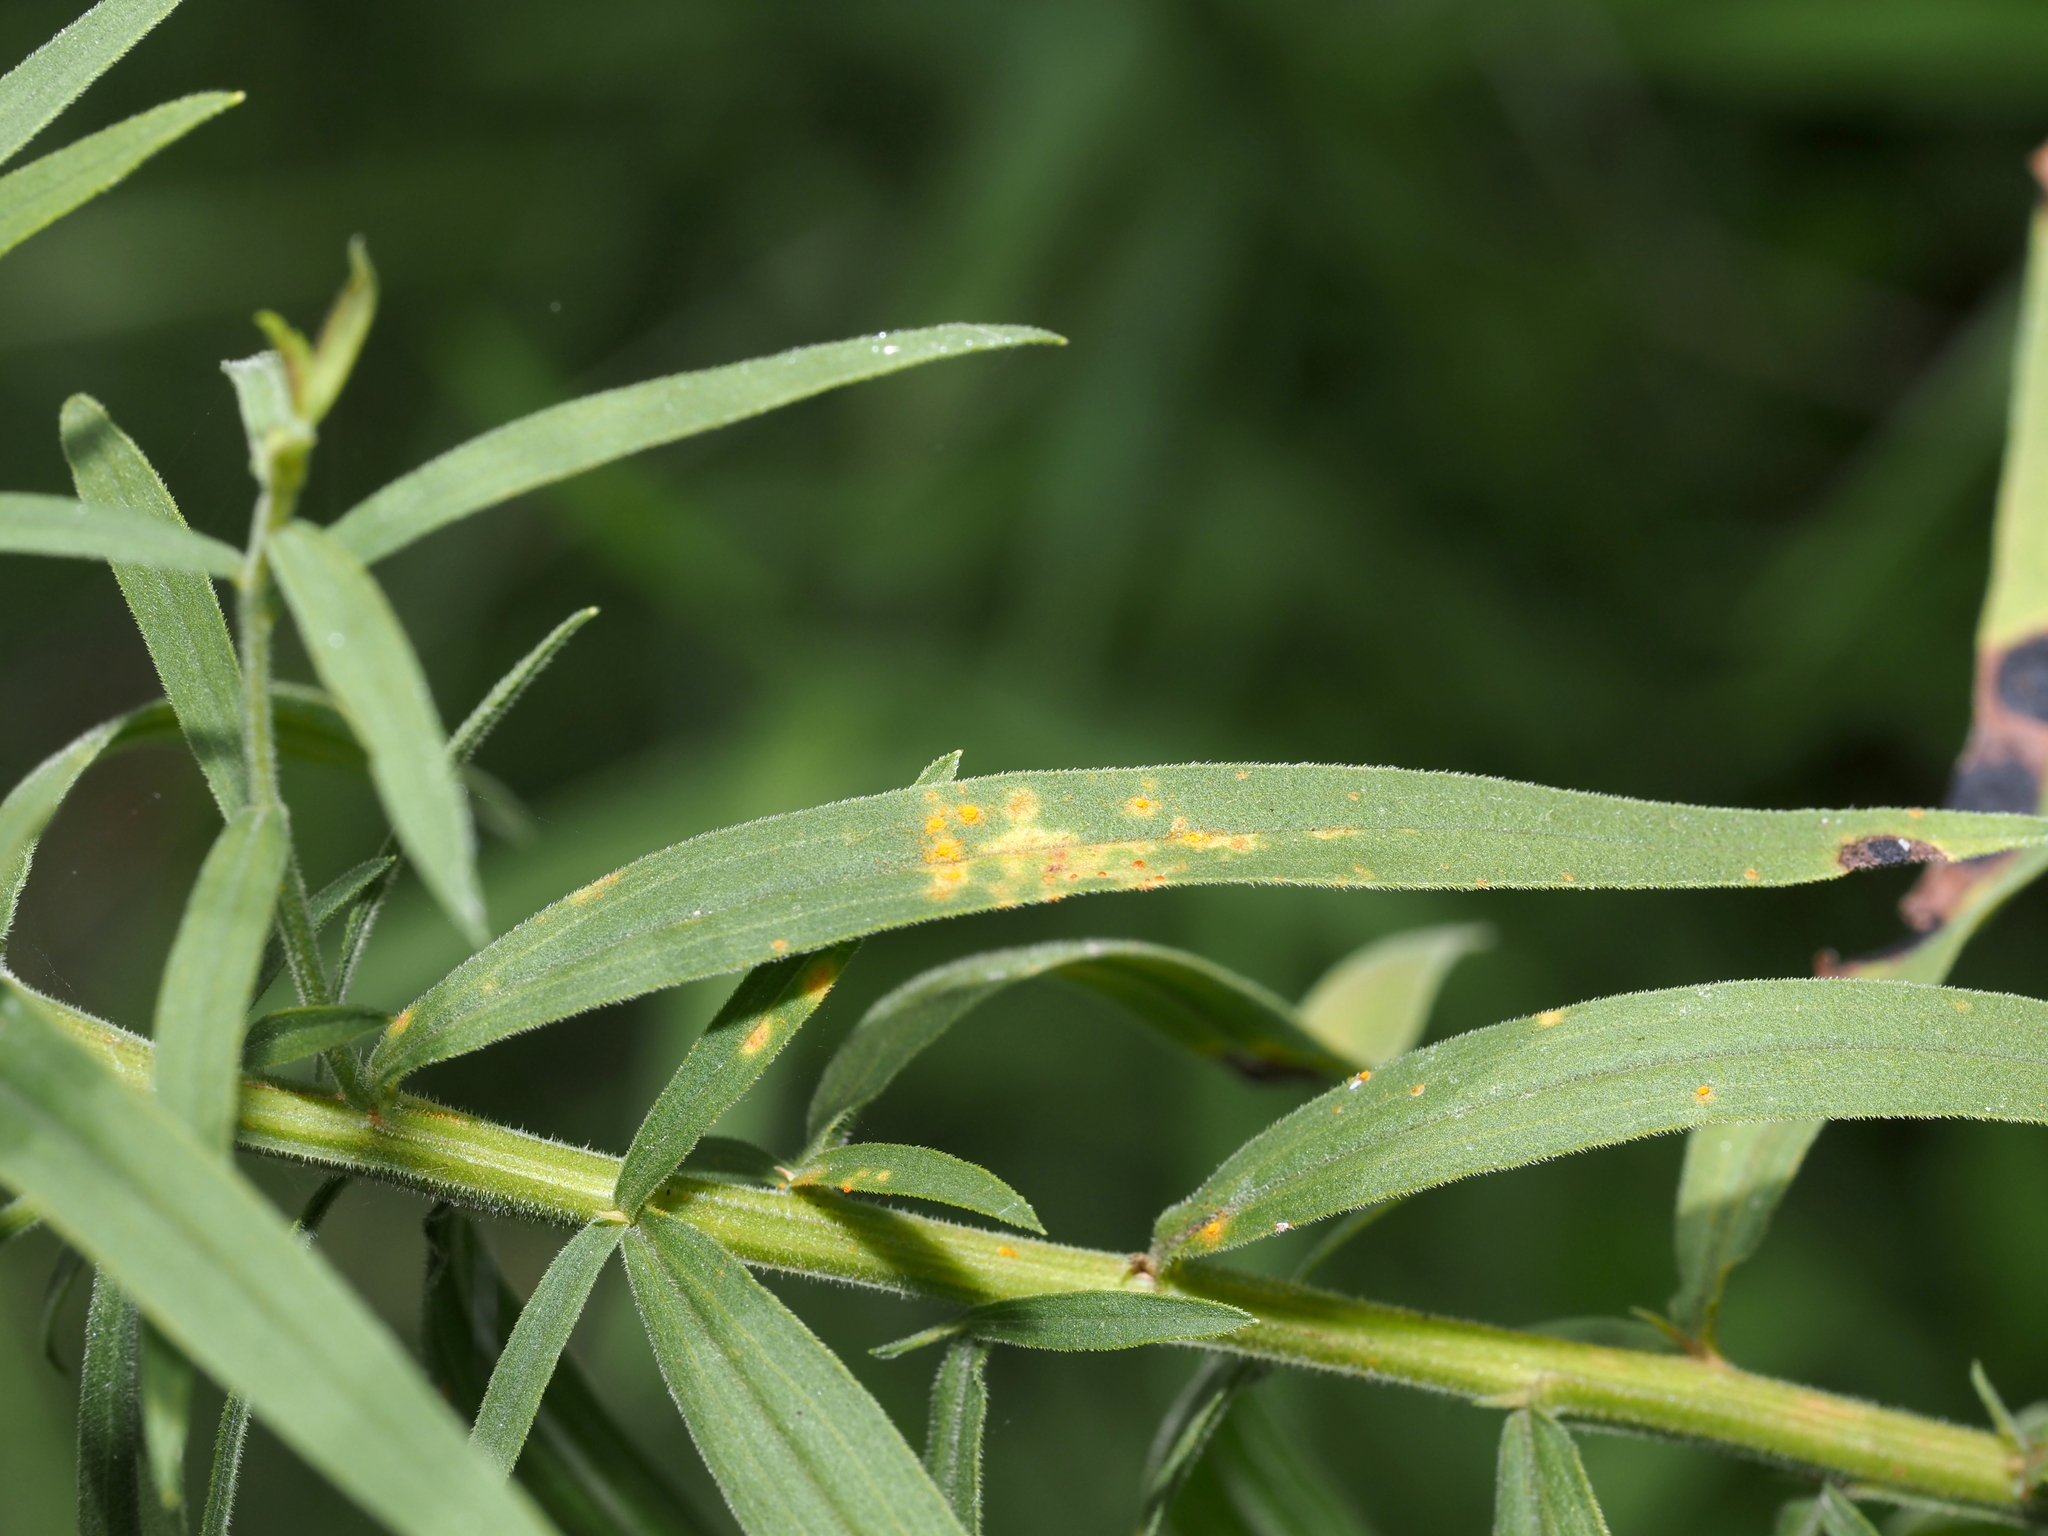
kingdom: Fungi
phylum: Basidiomycota
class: Pucciniomycetes
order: Pucciniales
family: Coleosporiaceae
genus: Coleosporium
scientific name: Coleosporium asterum
